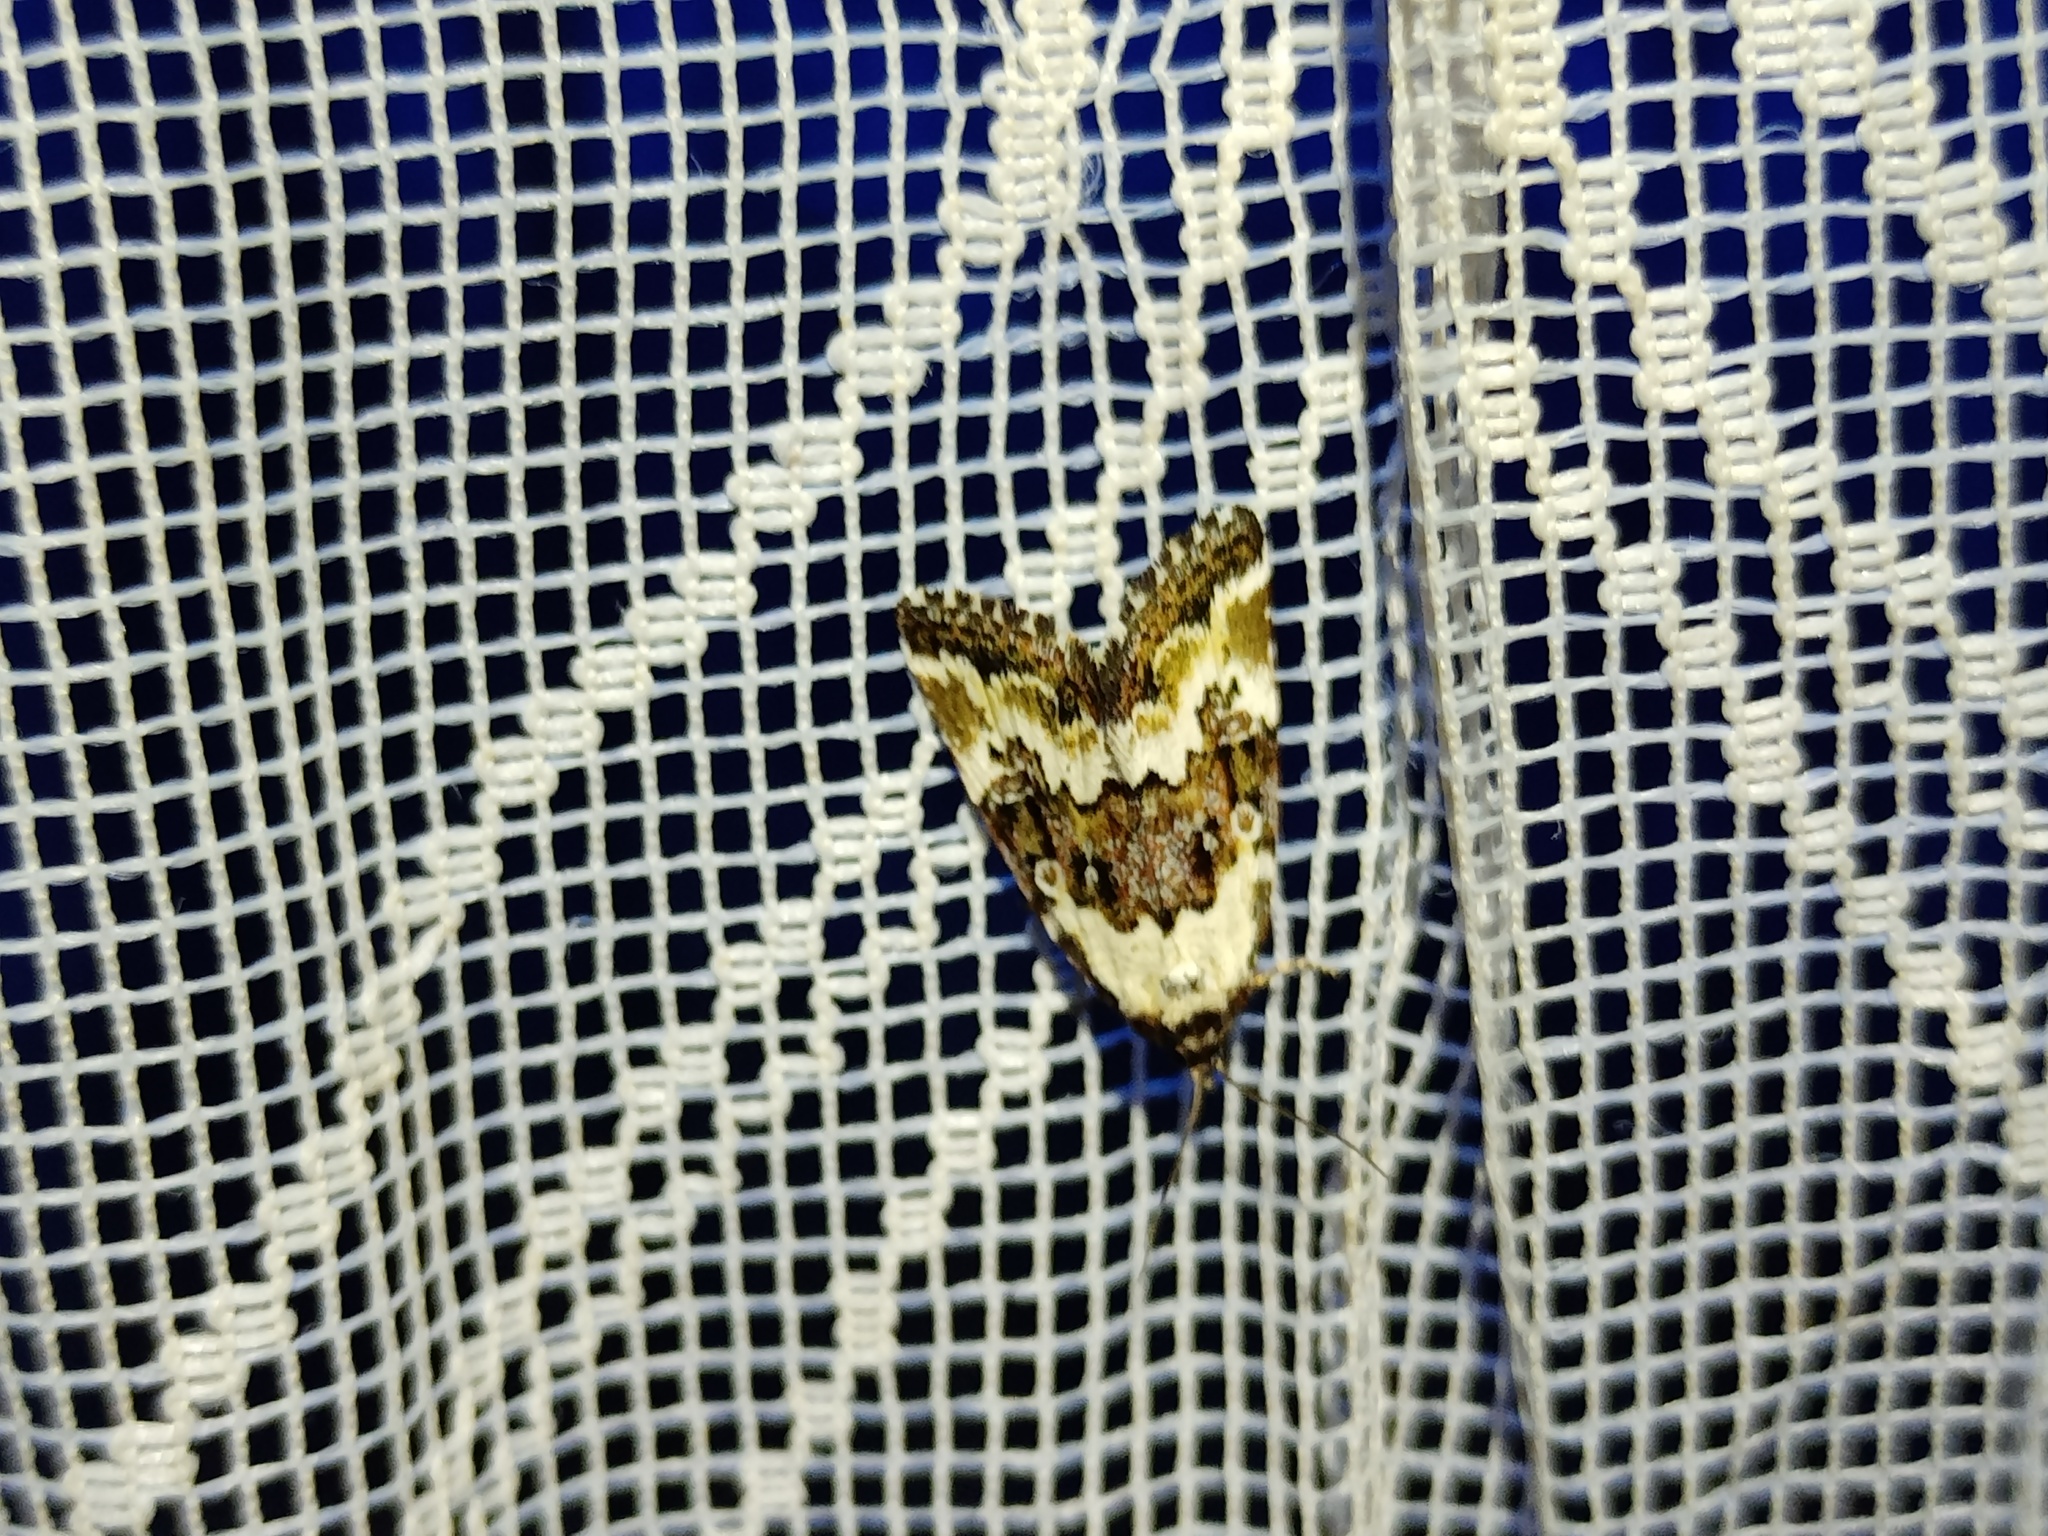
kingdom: Animalia
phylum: Arthropoda
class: Insecta
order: Lepidoptera
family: Noctuidae
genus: Deltote
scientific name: Deltote deceptoria
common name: Pretty marbled
